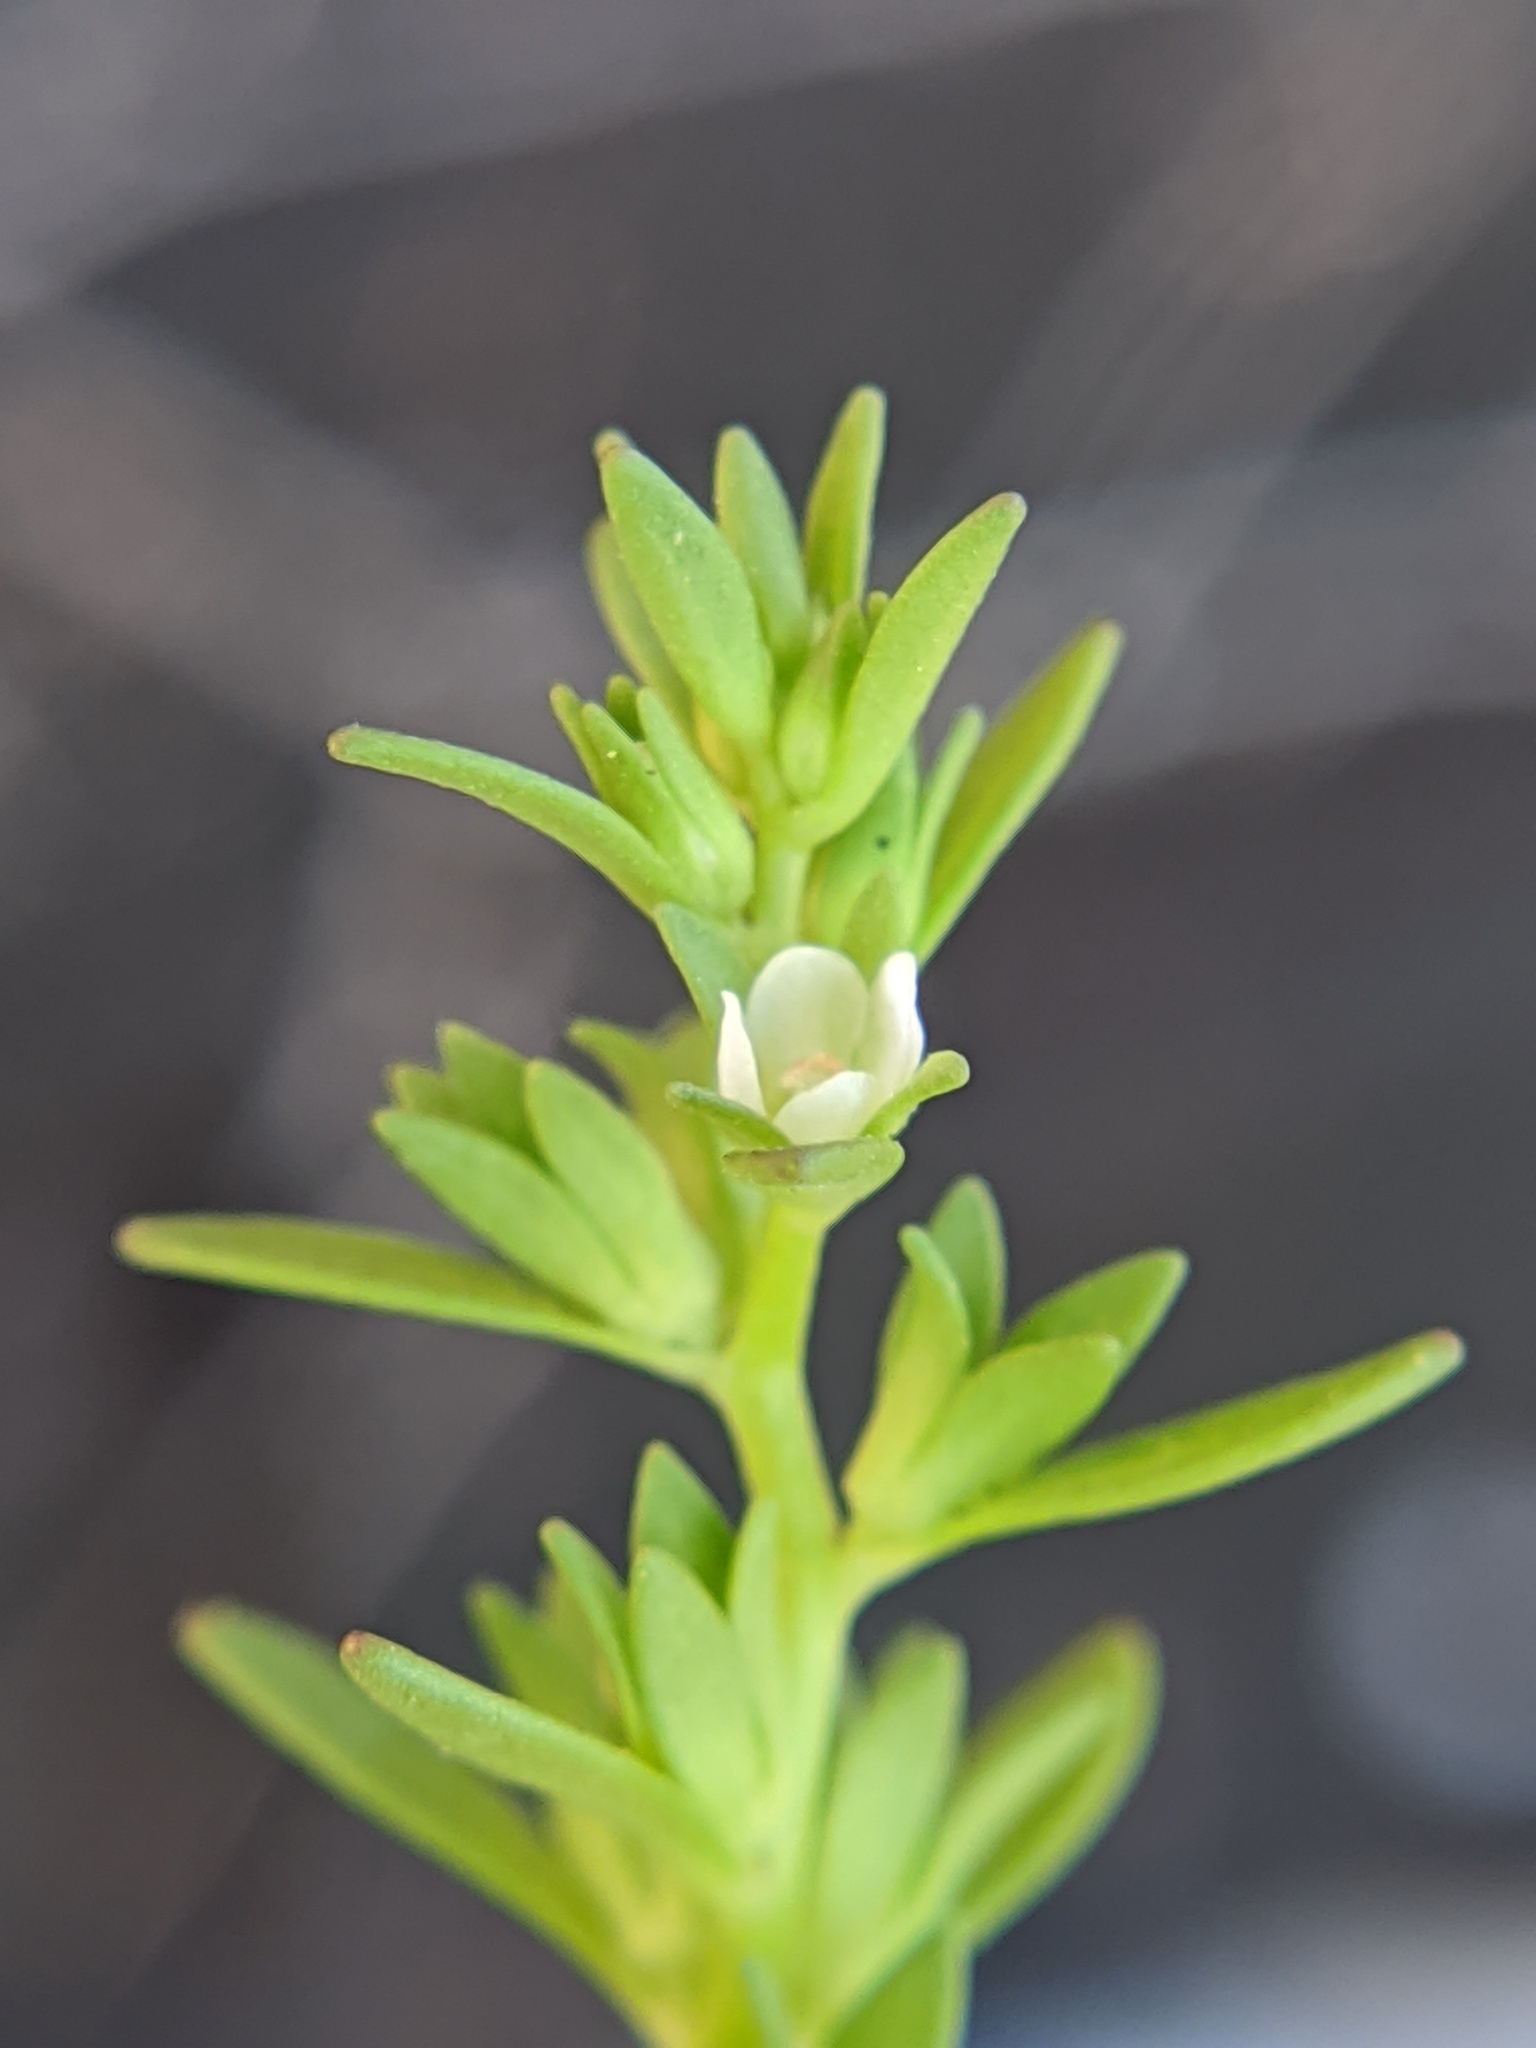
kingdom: Plantae
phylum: Tracheophyta
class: Magnoliopsida
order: Lamiales
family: Plantaginaceae
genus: Veronica
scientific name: Veronica peregrina
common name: Neckweed
